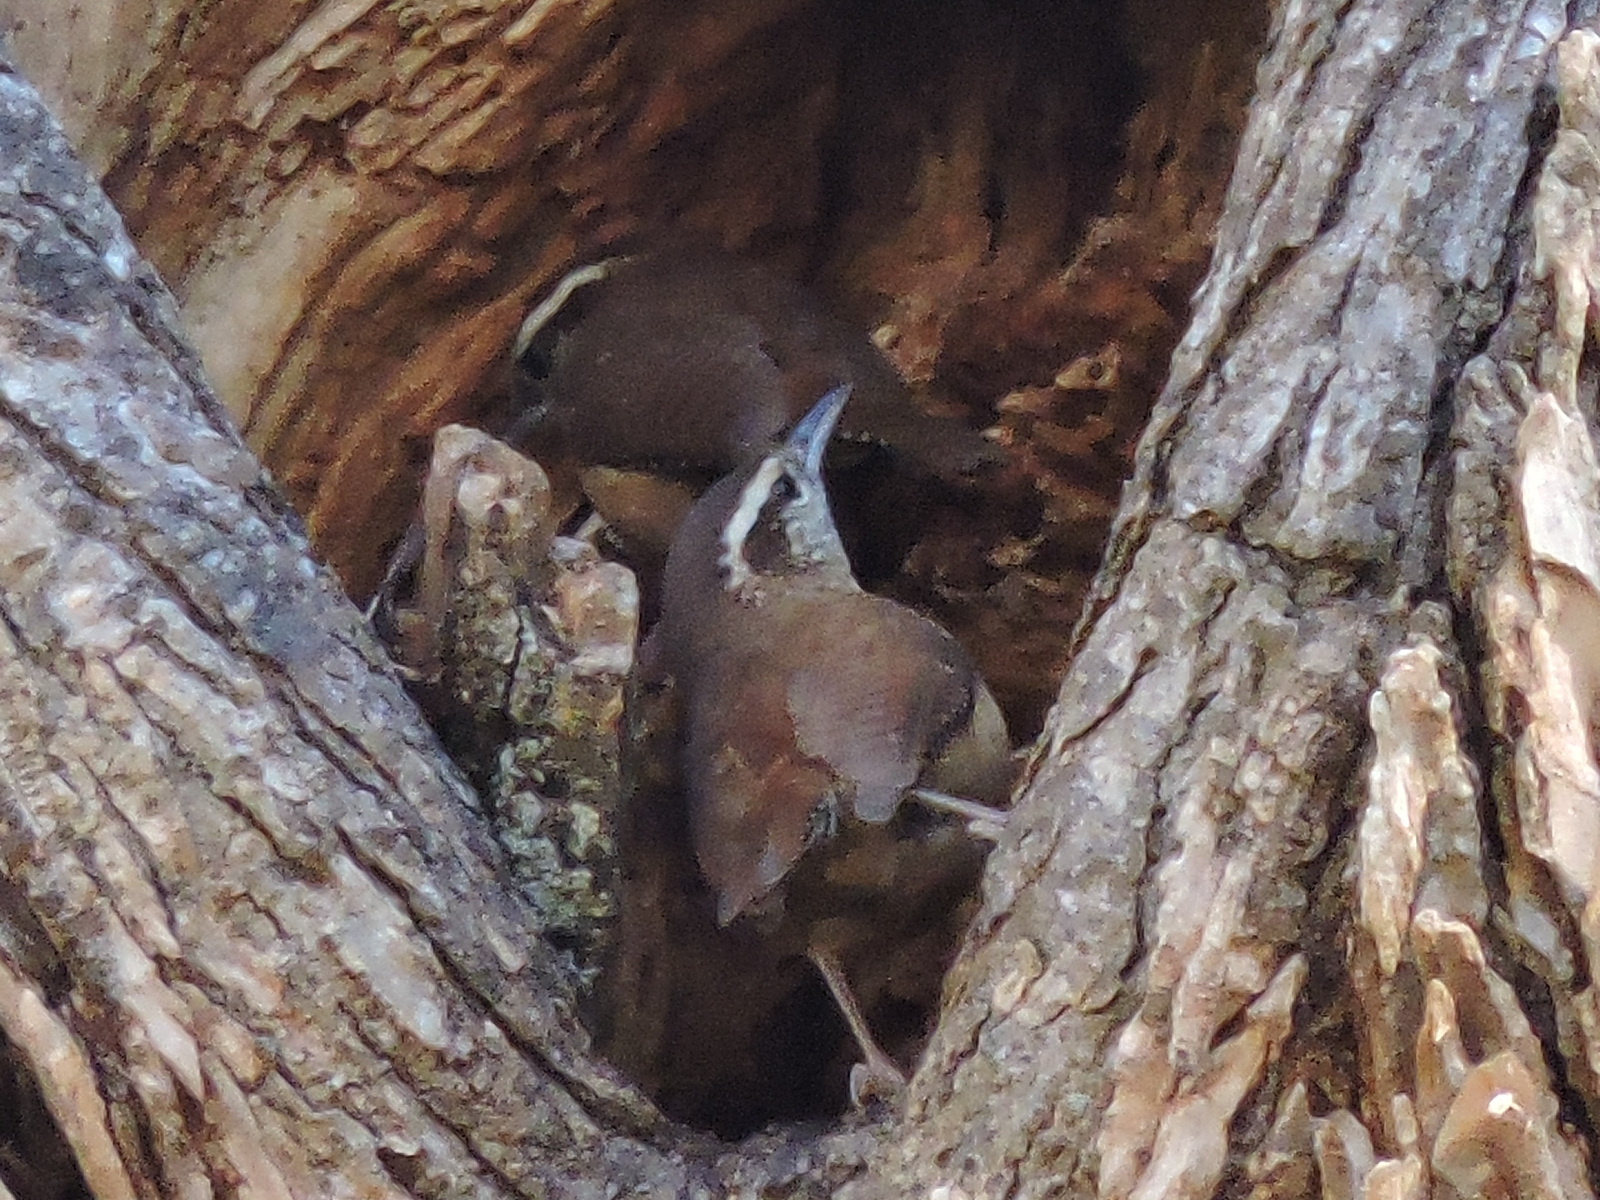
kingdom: Animalia
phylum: Chordata
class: Aves
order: Passeriformes
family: Troglodytidae
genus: Thryothorus
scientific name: Thryothorus ludovicianus
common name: Carolina wren
